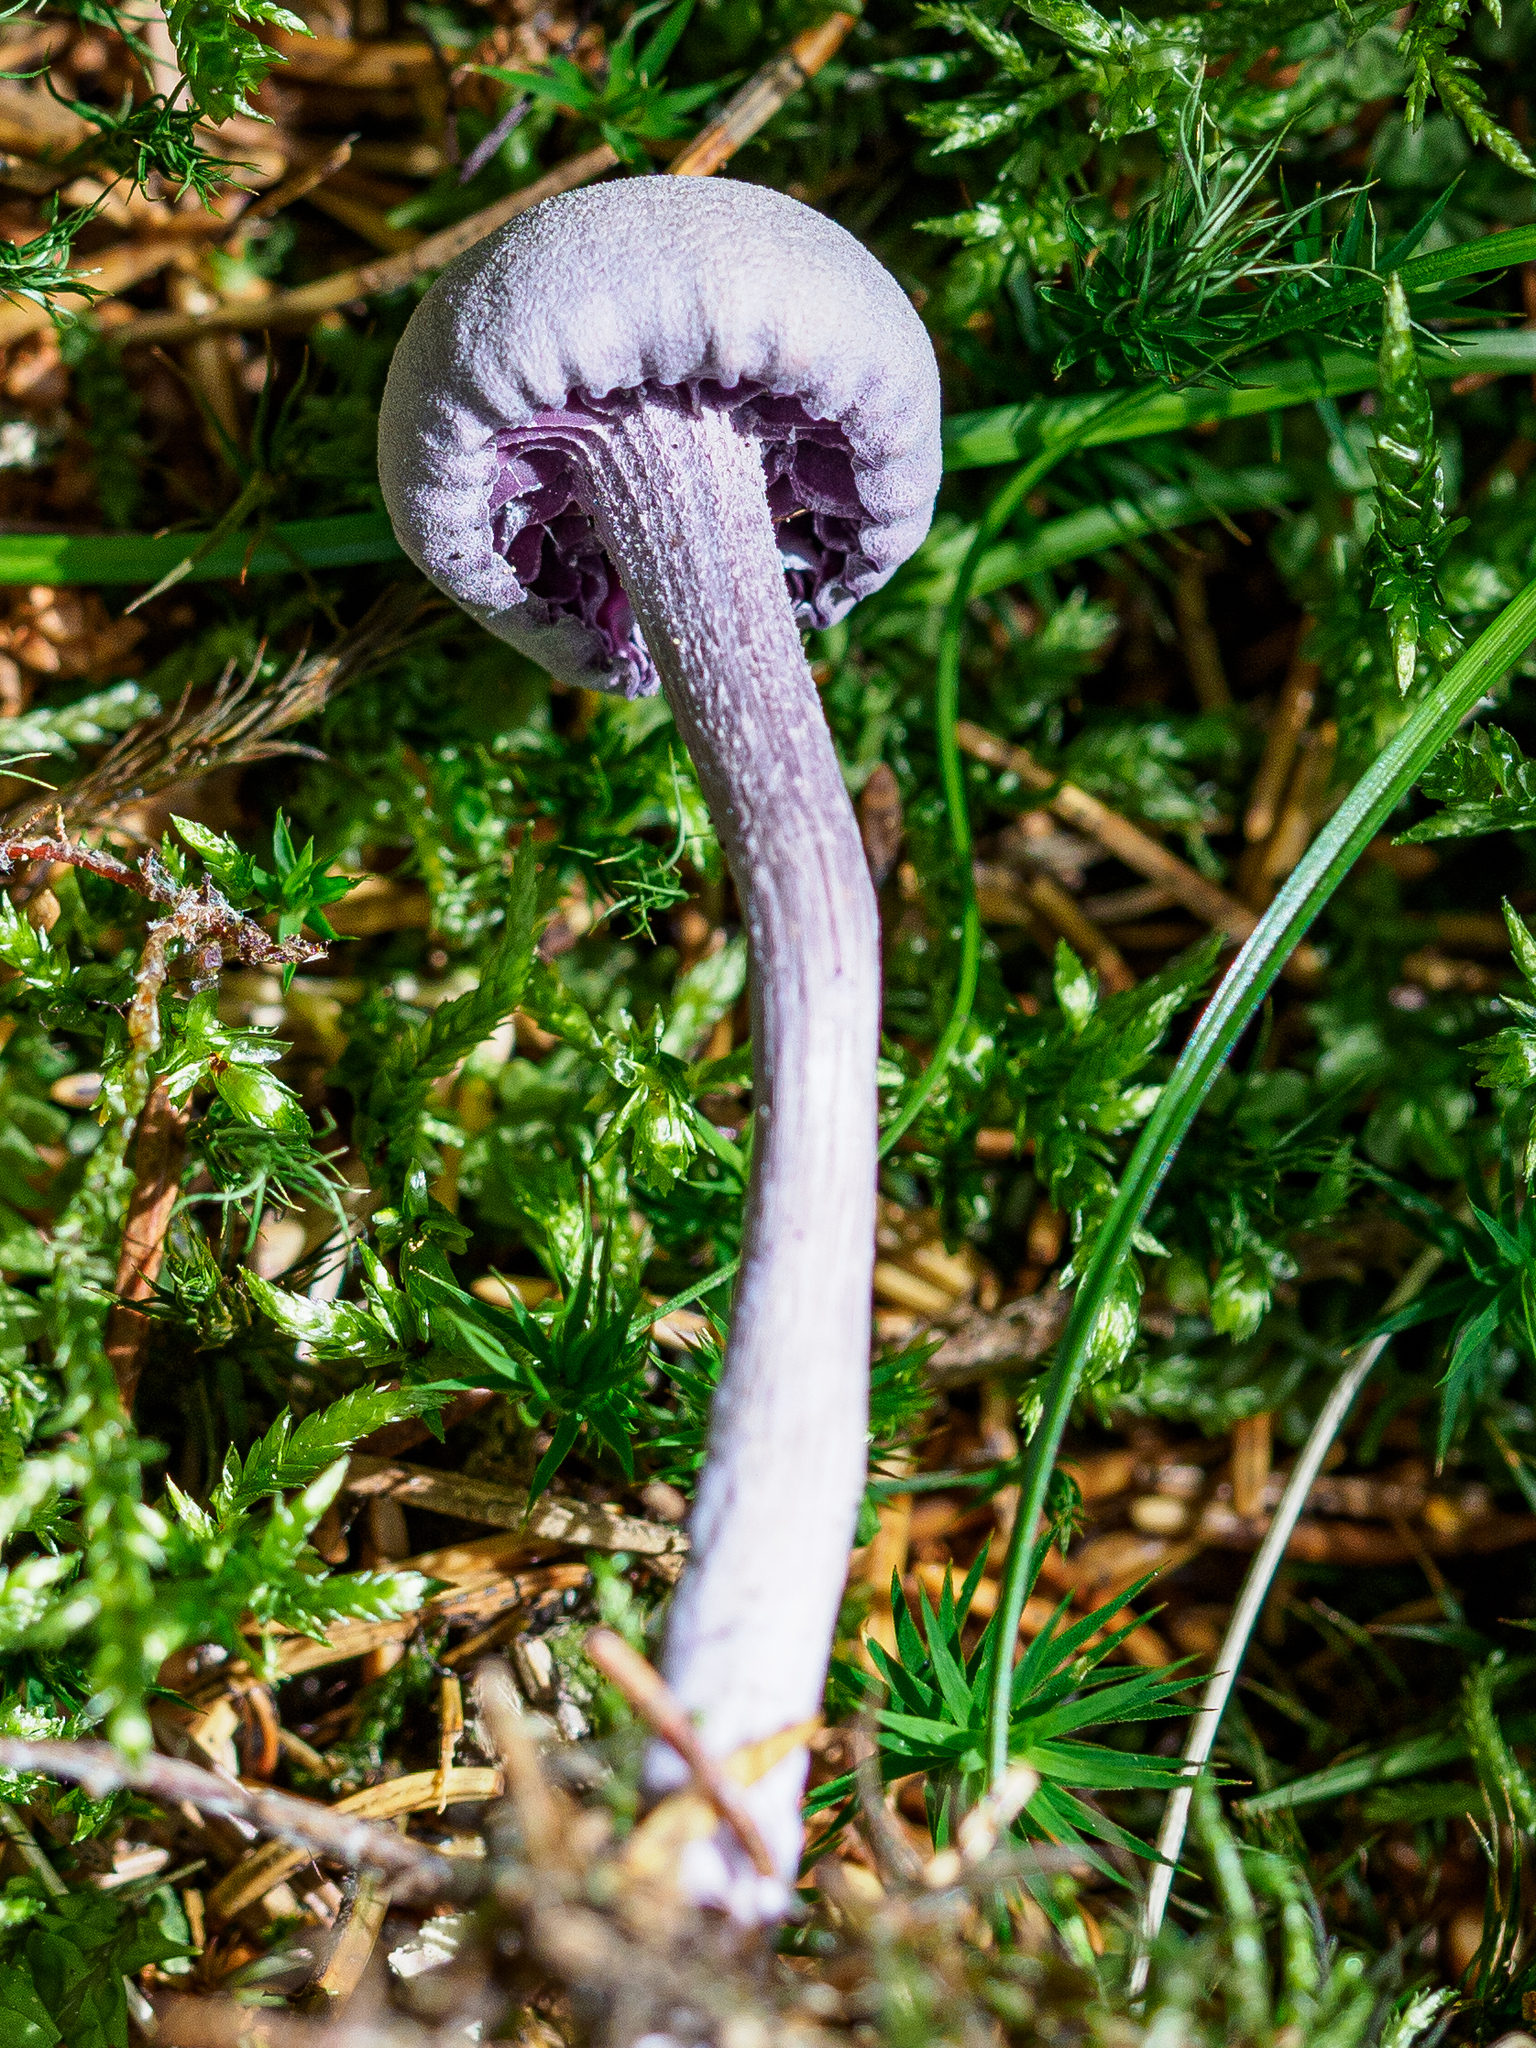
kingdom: Fungi
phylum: Basidiomycota
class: Agaricomycetes
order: Agaricales
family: Hydnangiaceae
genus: Laccaria
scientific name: Laccaria amethystina
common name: Amethyst deceiver
